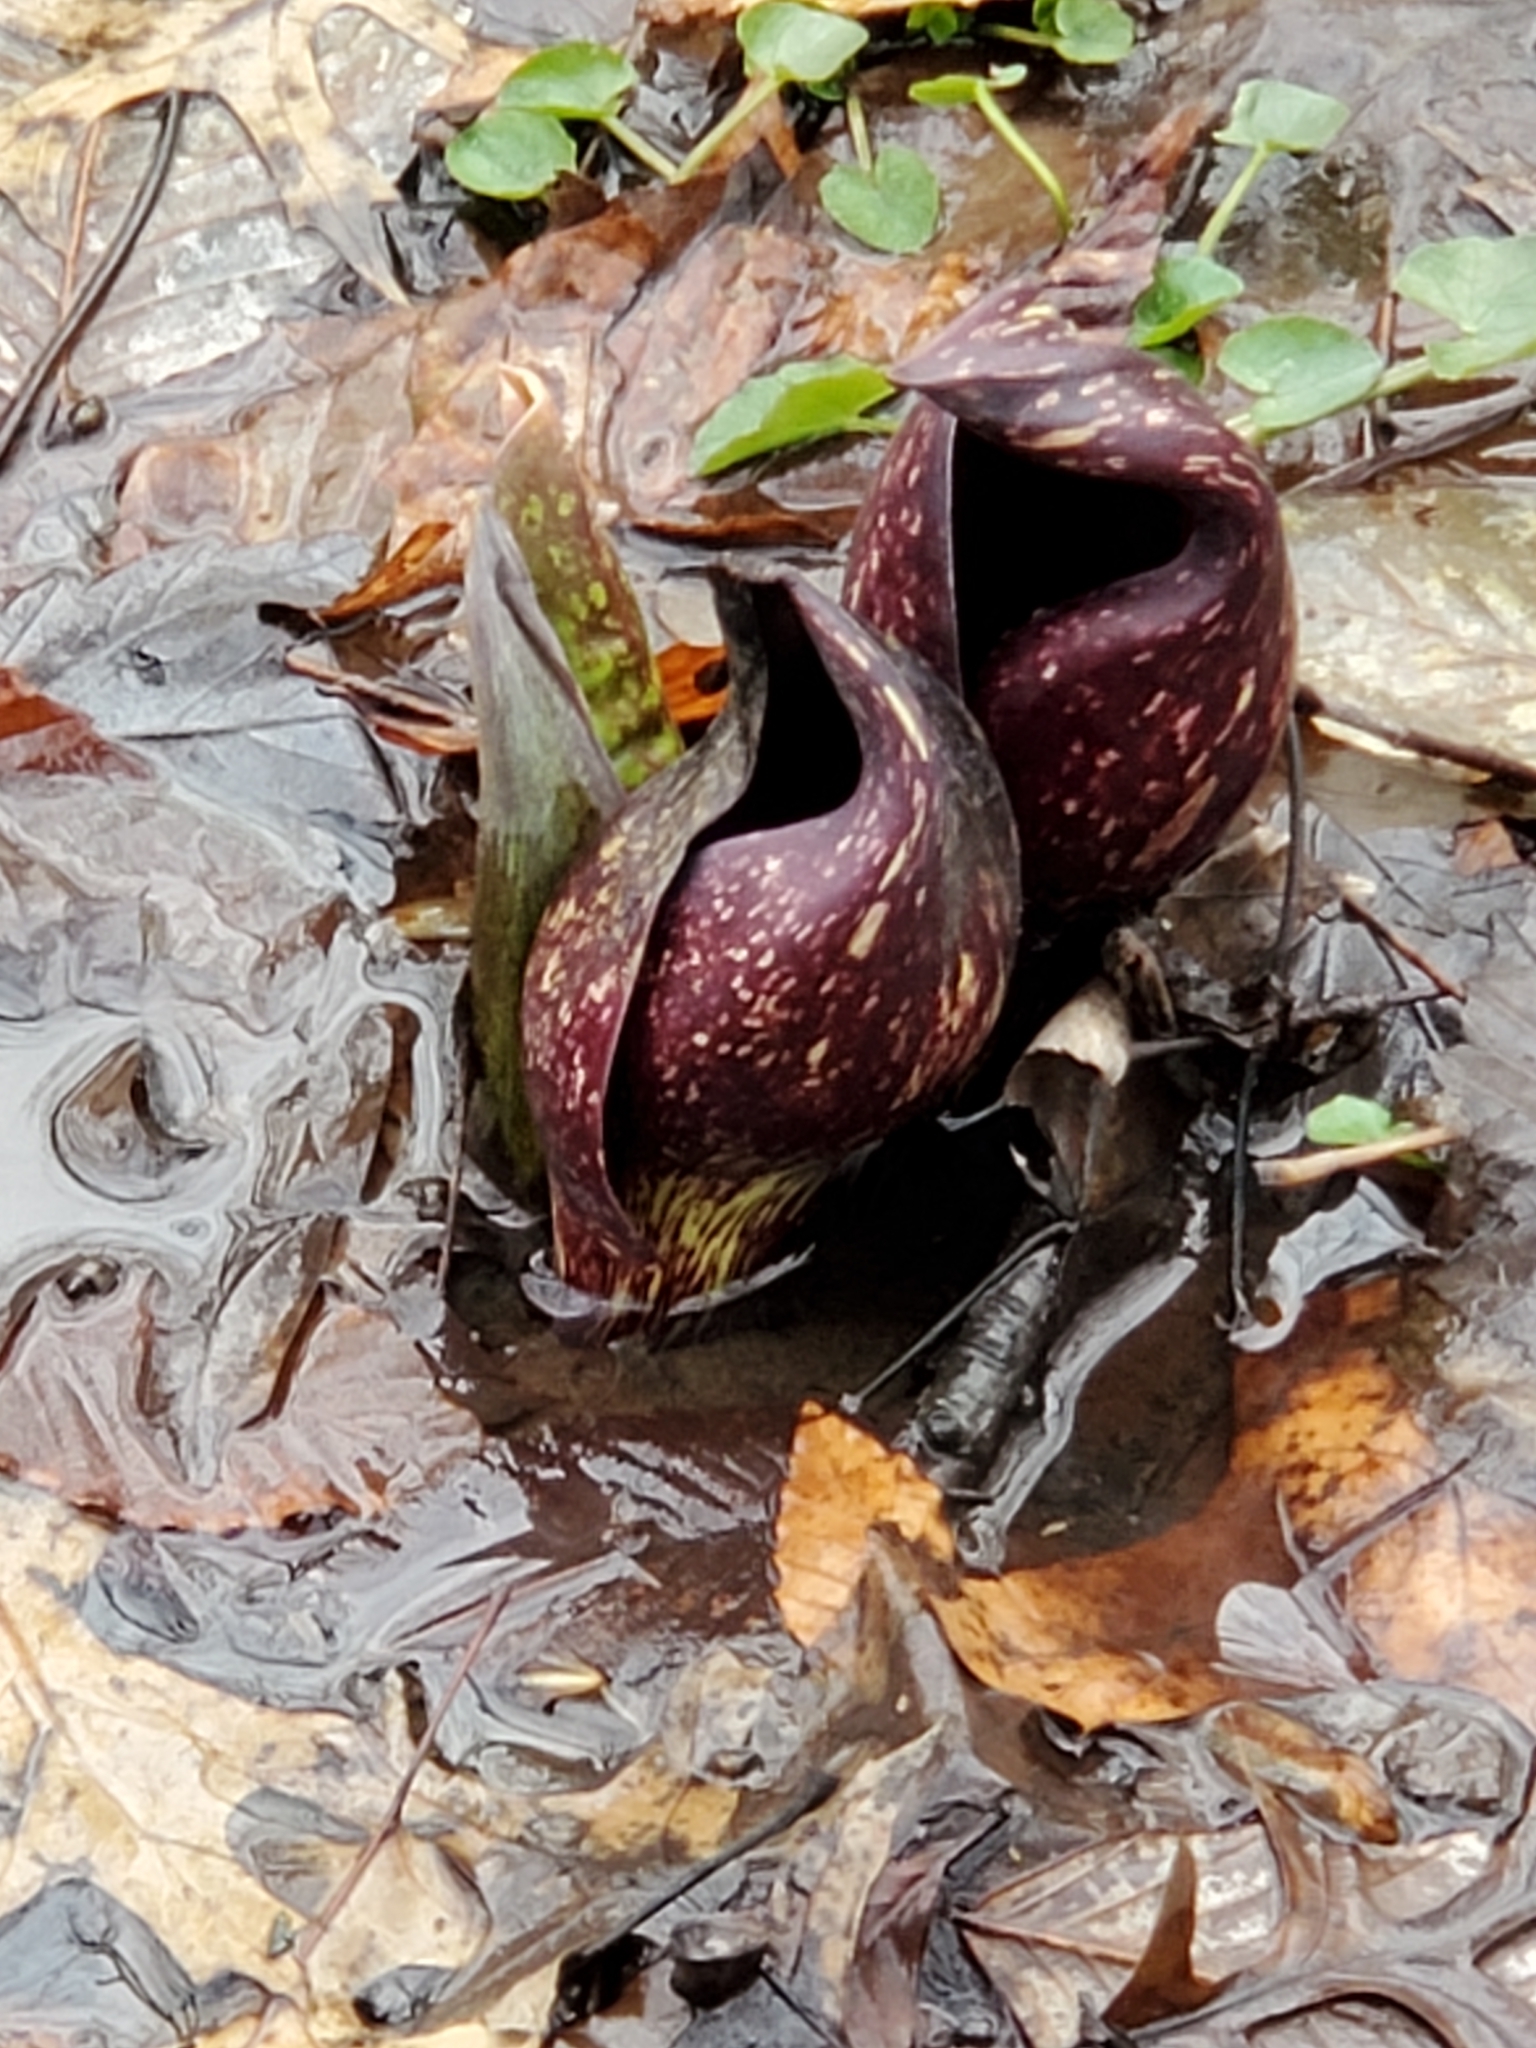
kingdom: Plantae
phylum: Tracheophyta
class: Liliopsida
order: Alismatales
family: Araceae
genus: Symplocarpus
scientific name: Symplocarpus foetidus
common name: Eastern skunk cabbage
